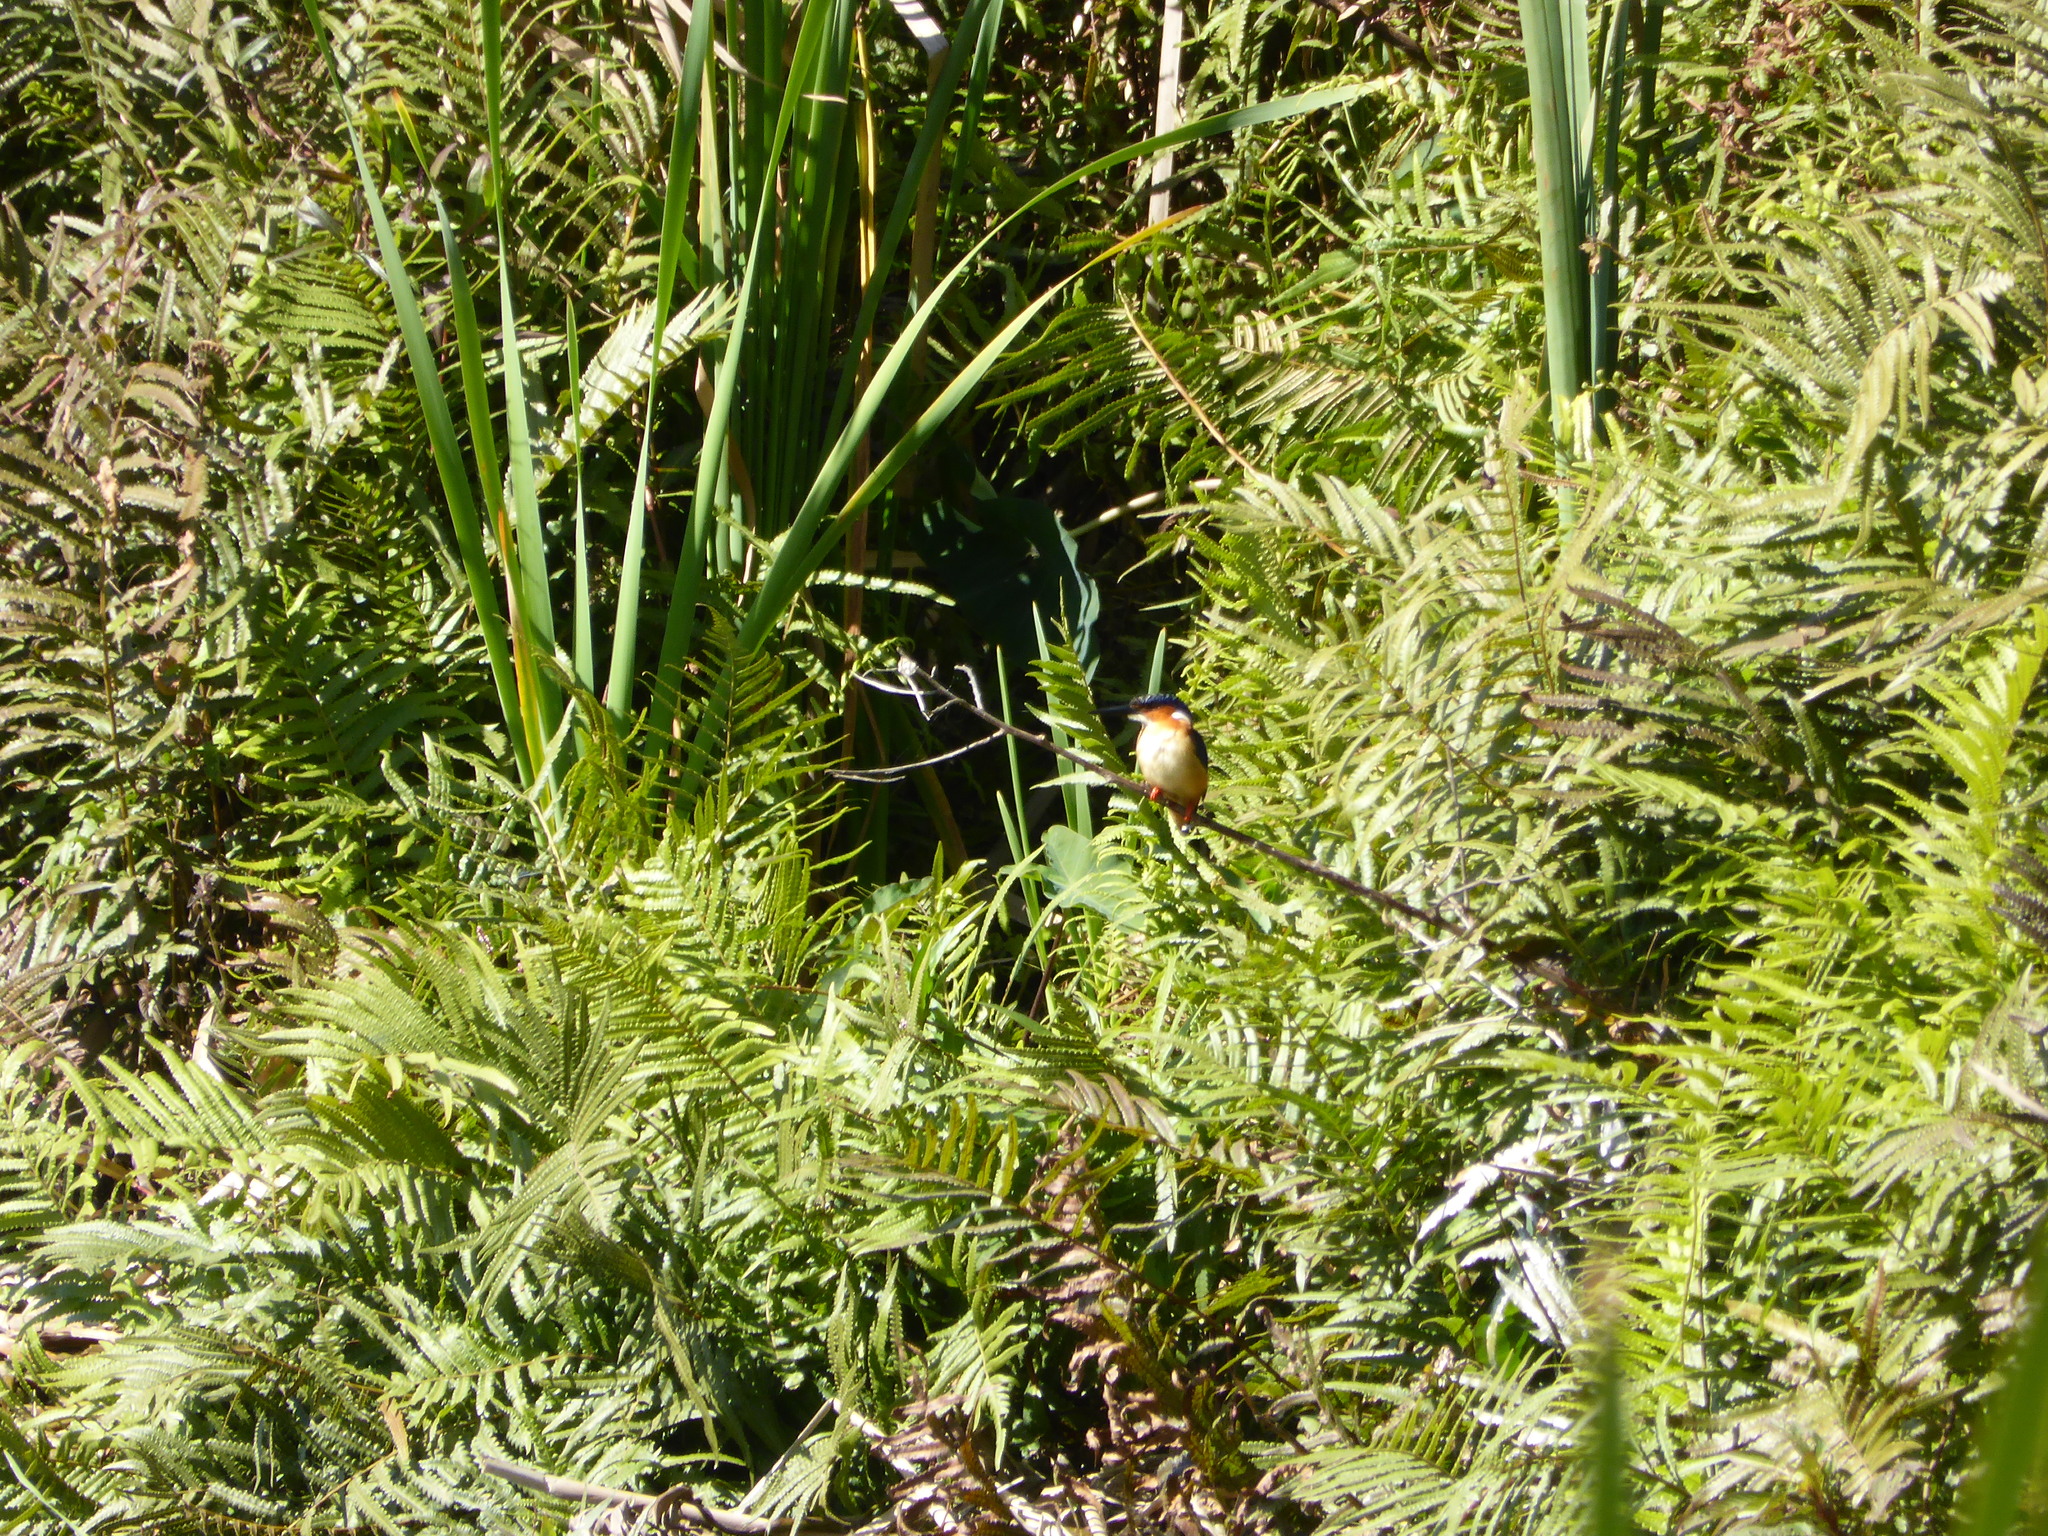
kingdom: Animalia
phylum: Chordata
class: Aves
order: Coraciiformes
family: Alcedinidae
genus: Corythornis
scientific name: Corythornis vintsioides
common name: Malagasy kingfisher
